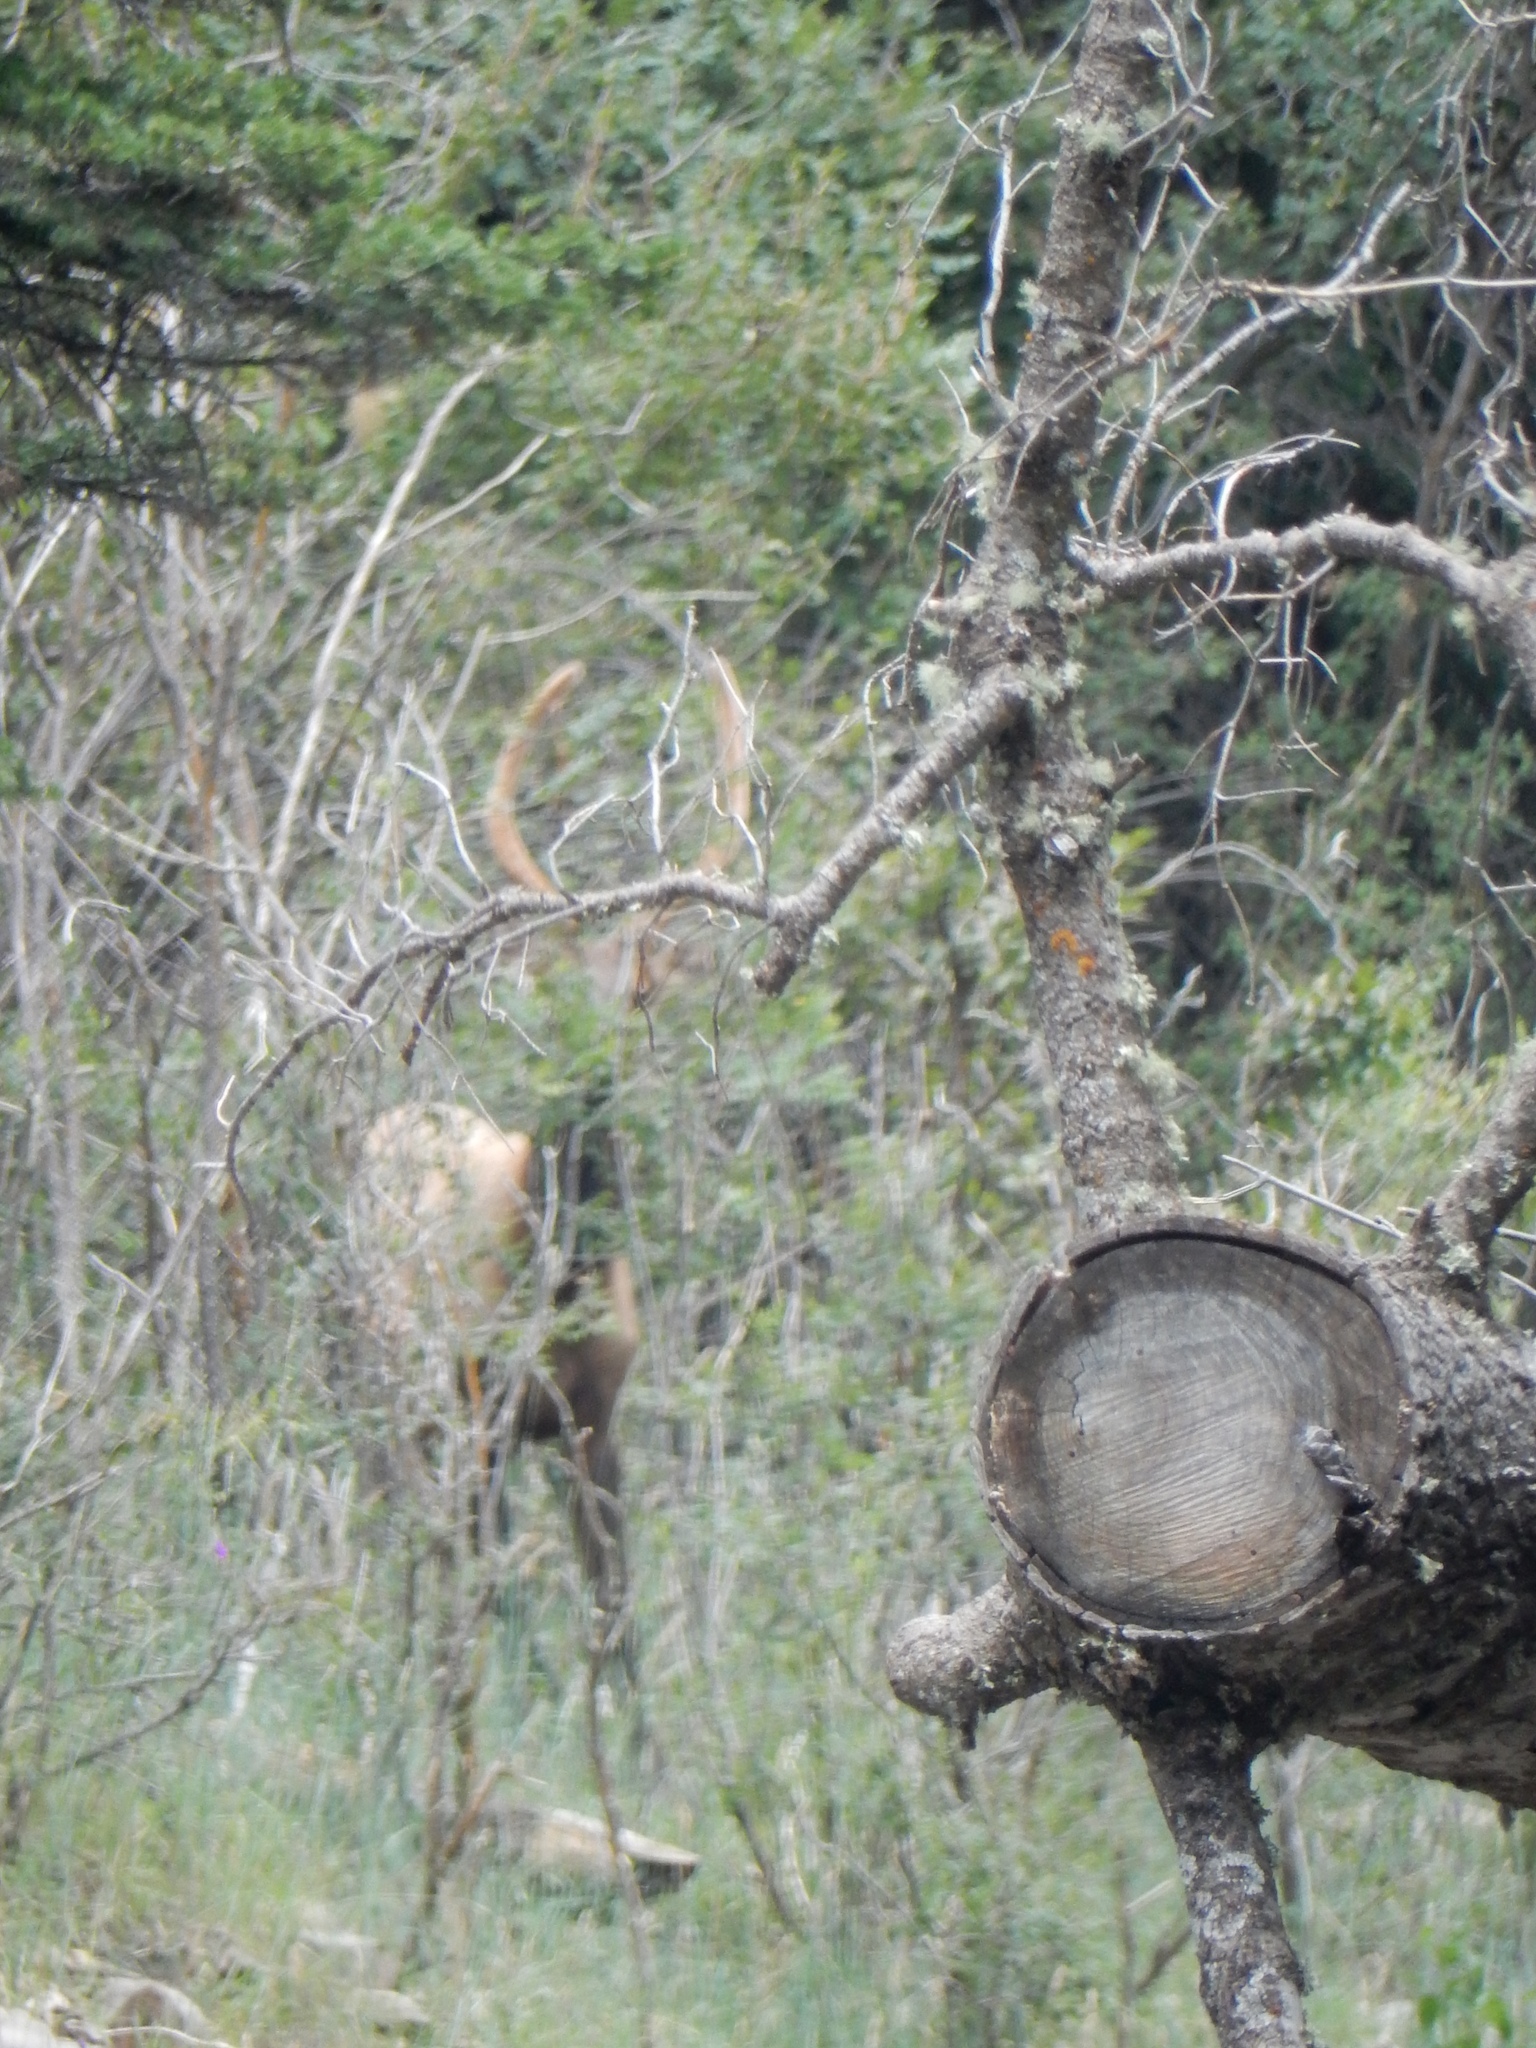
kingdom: Animalia
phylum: Chordata
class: Mammalia
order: Artiodactyla
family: Cervidae
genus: Cervus
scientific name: Cervus elaphus
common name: Red deer
